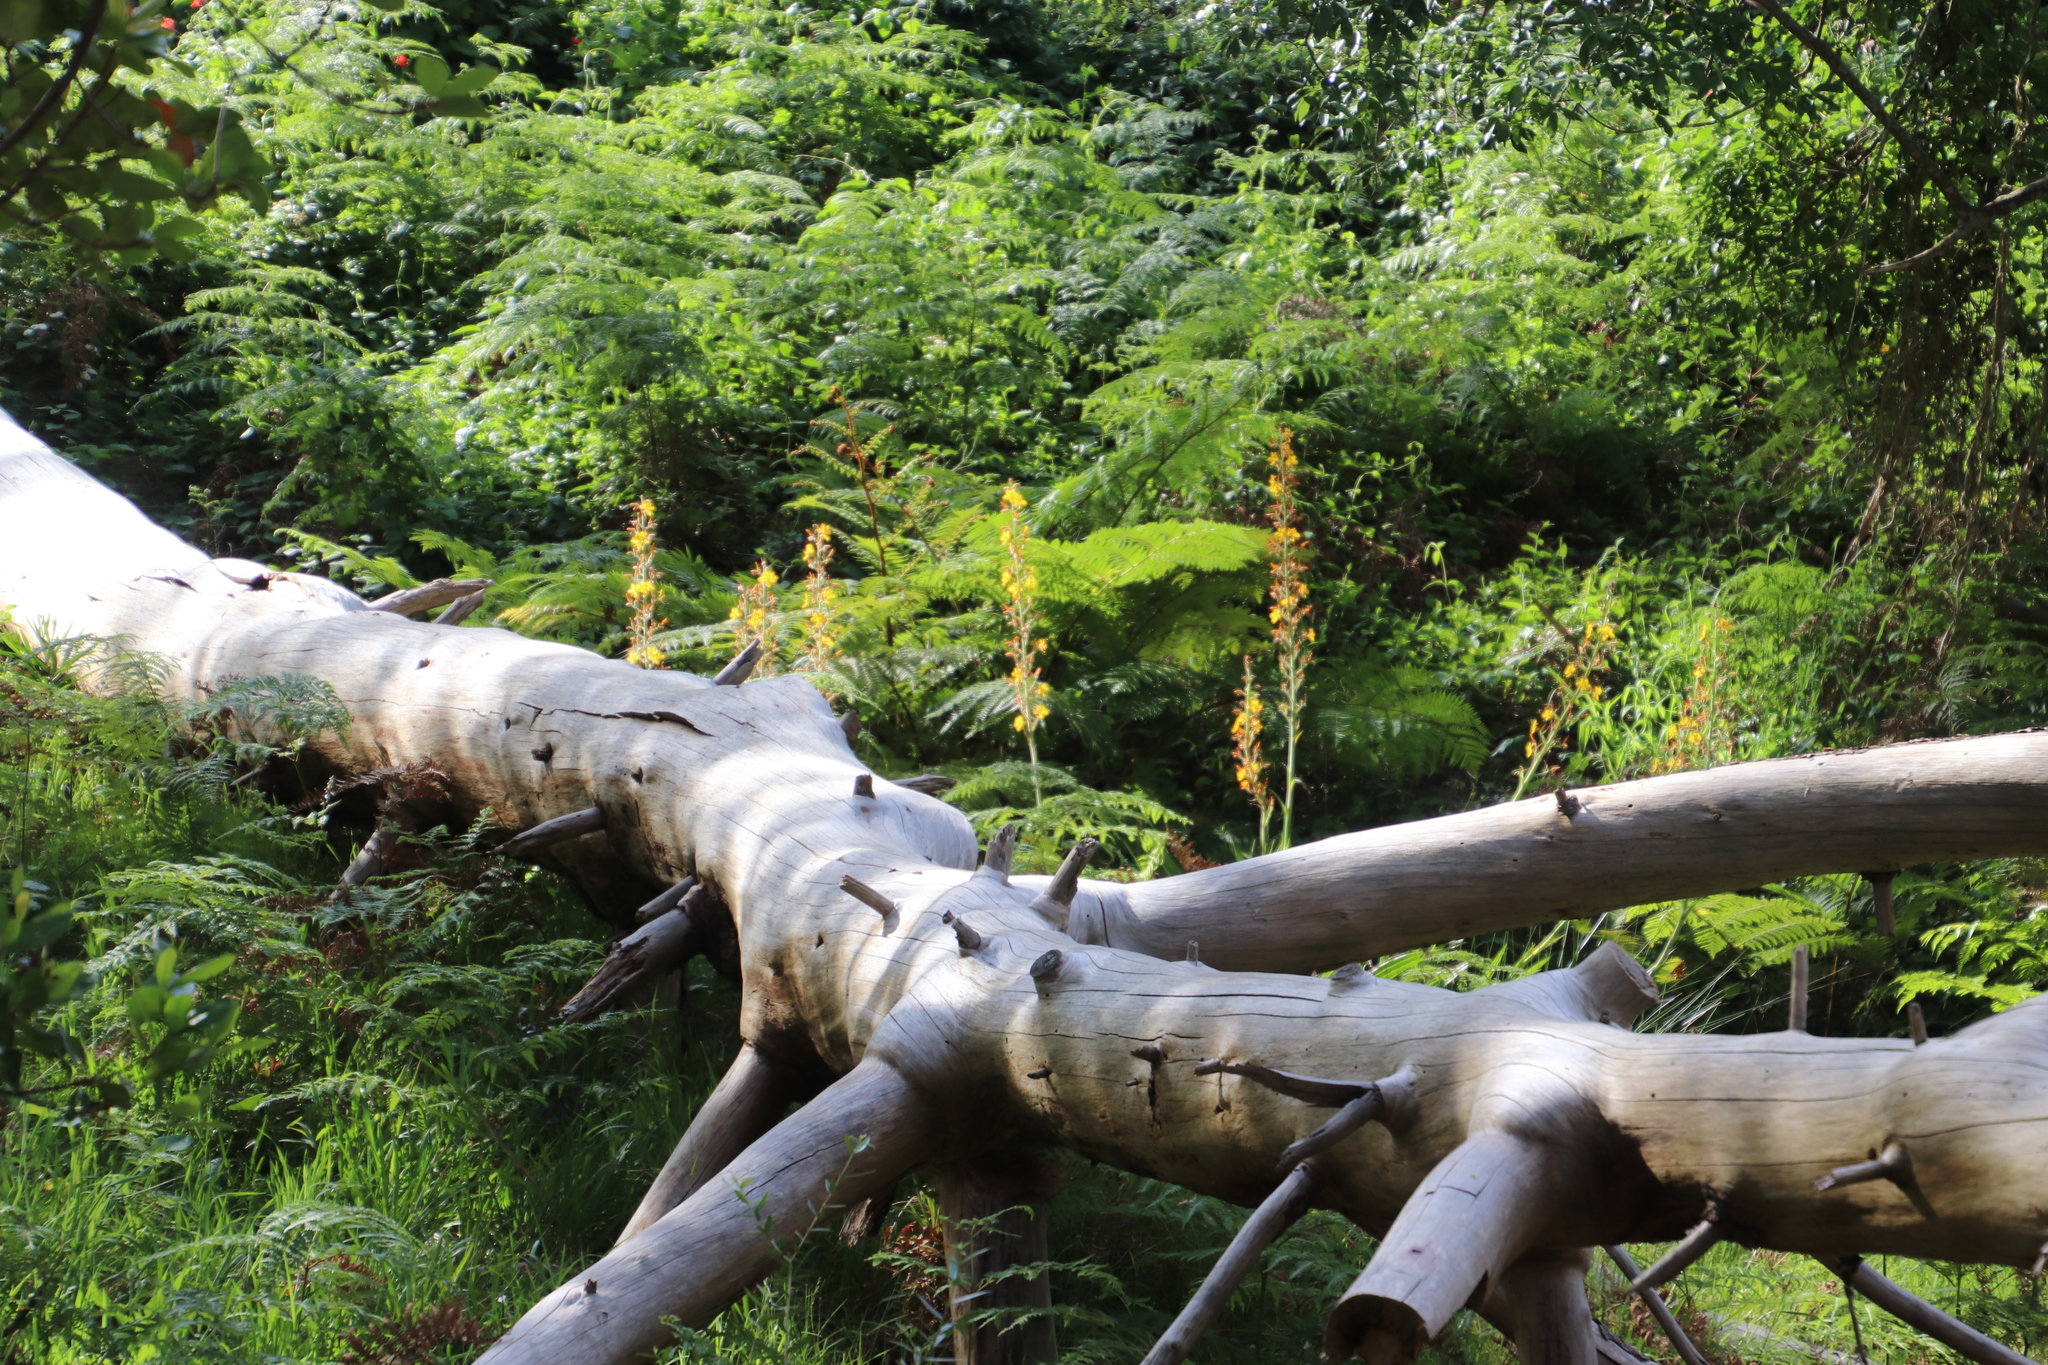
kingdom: Plantae
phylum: Tracheophyta
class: Liliopsida
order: Commelinales
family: Haemodoraceae
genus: Wachendorfia
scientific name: Wachendorfia thyrsiflora
